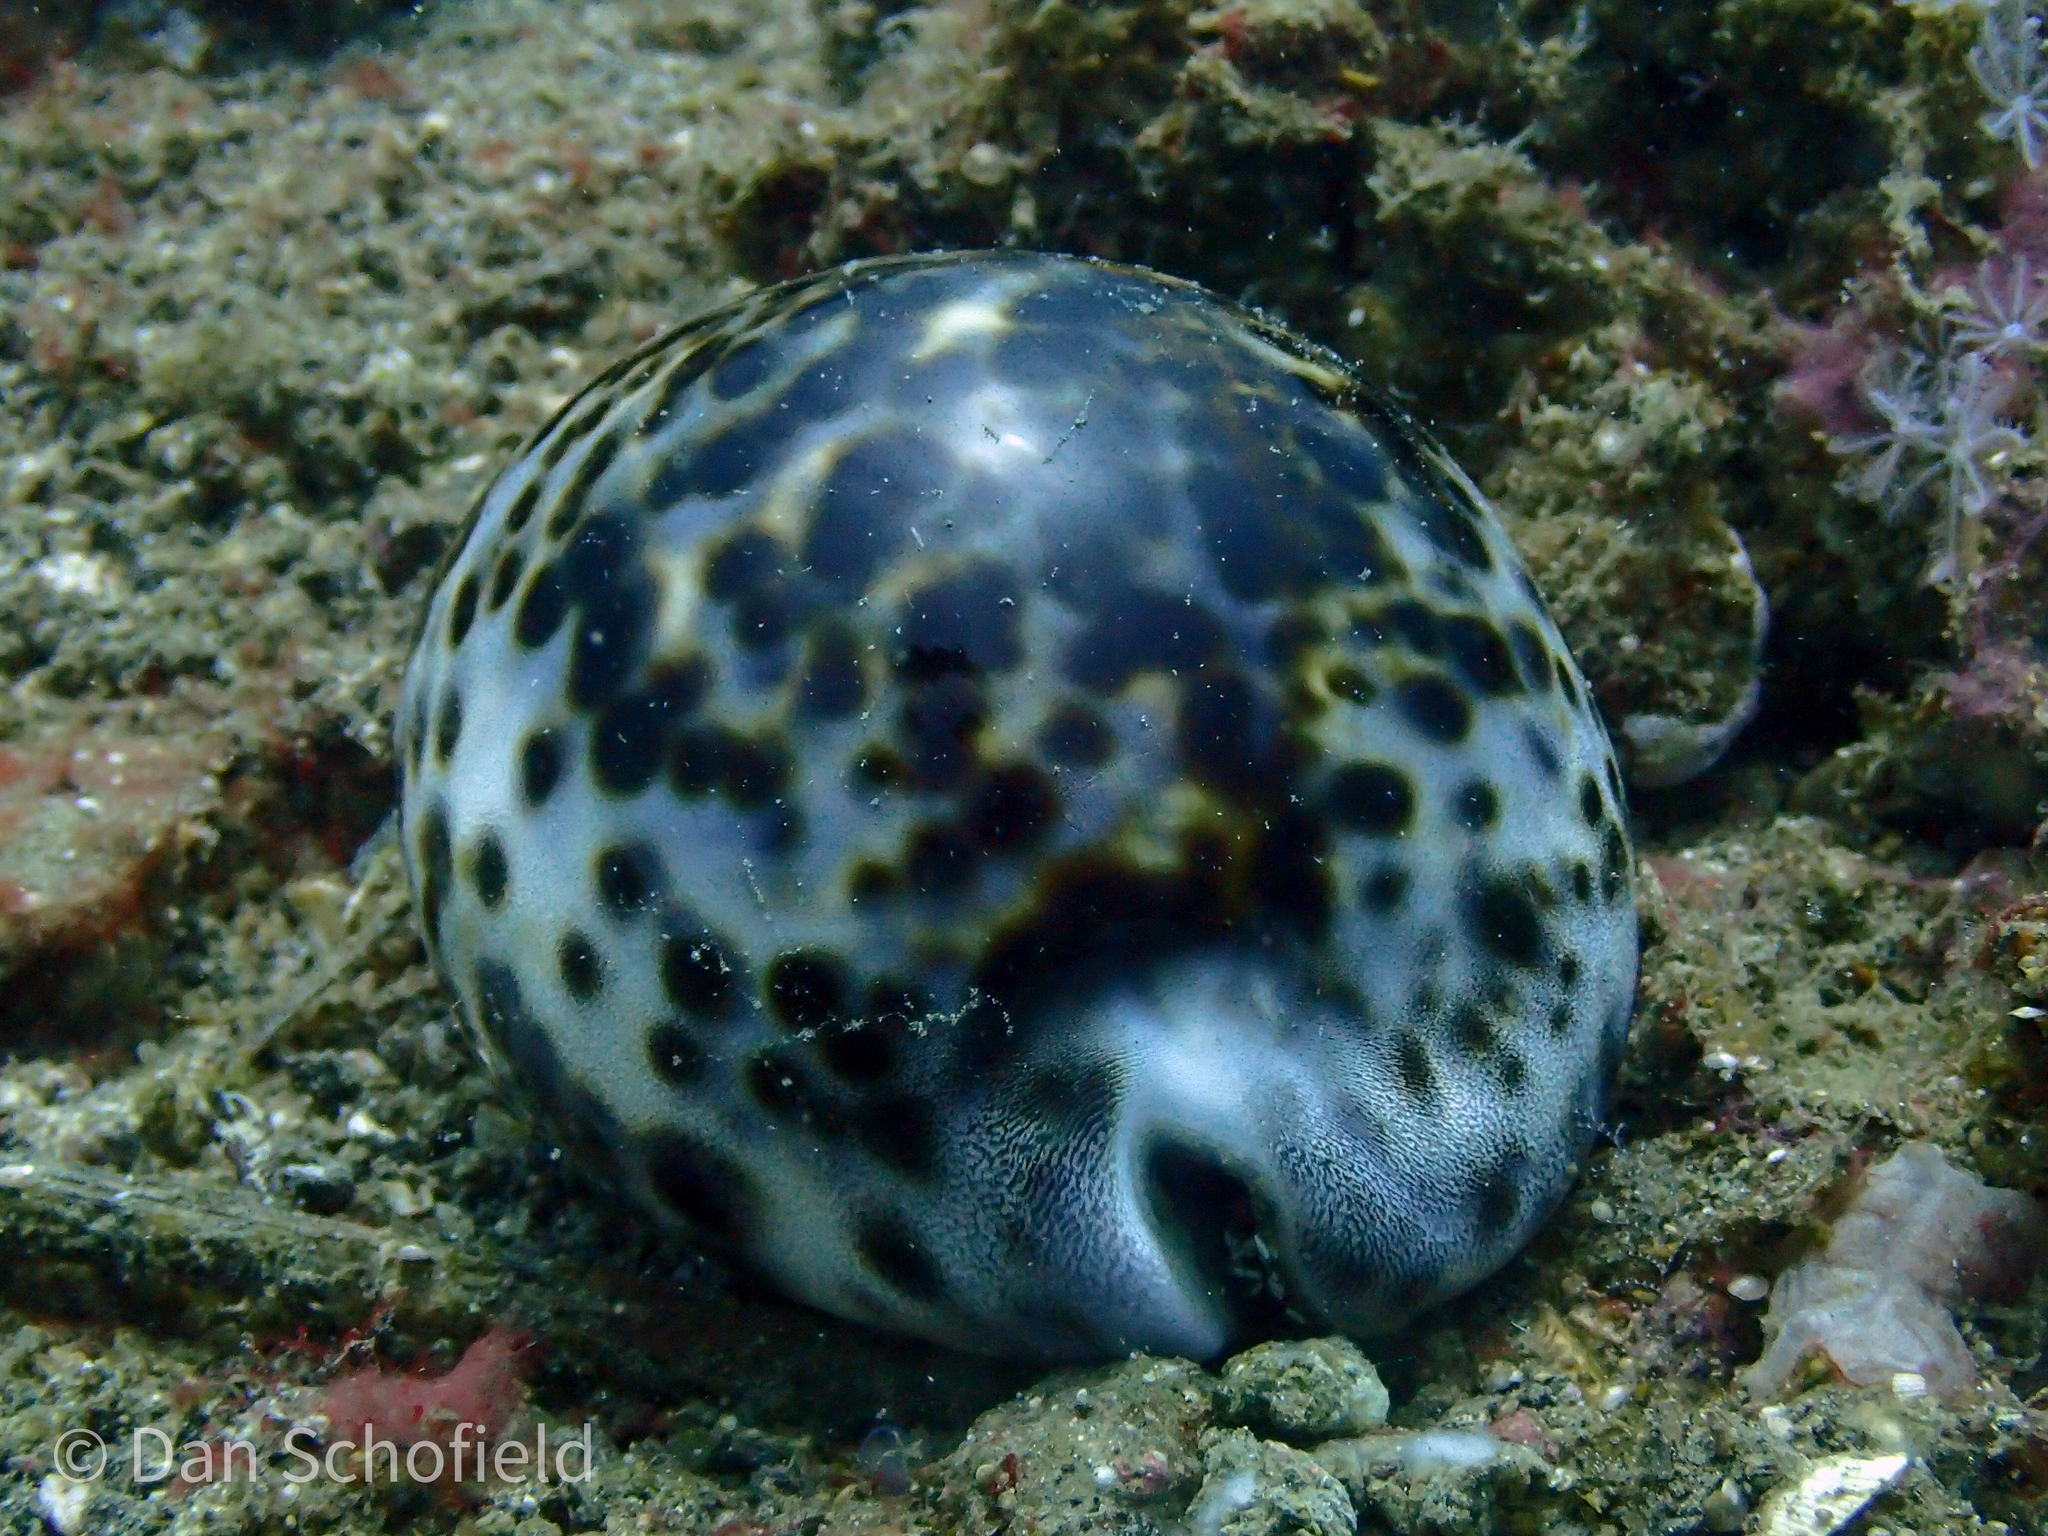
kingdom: Animalia
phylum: Mollusca
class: Gastropoda
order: Littorinimorpha
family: Cypraeidae
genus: Cypraea
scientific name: Cypraea tigris
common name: Tiger cowrie
